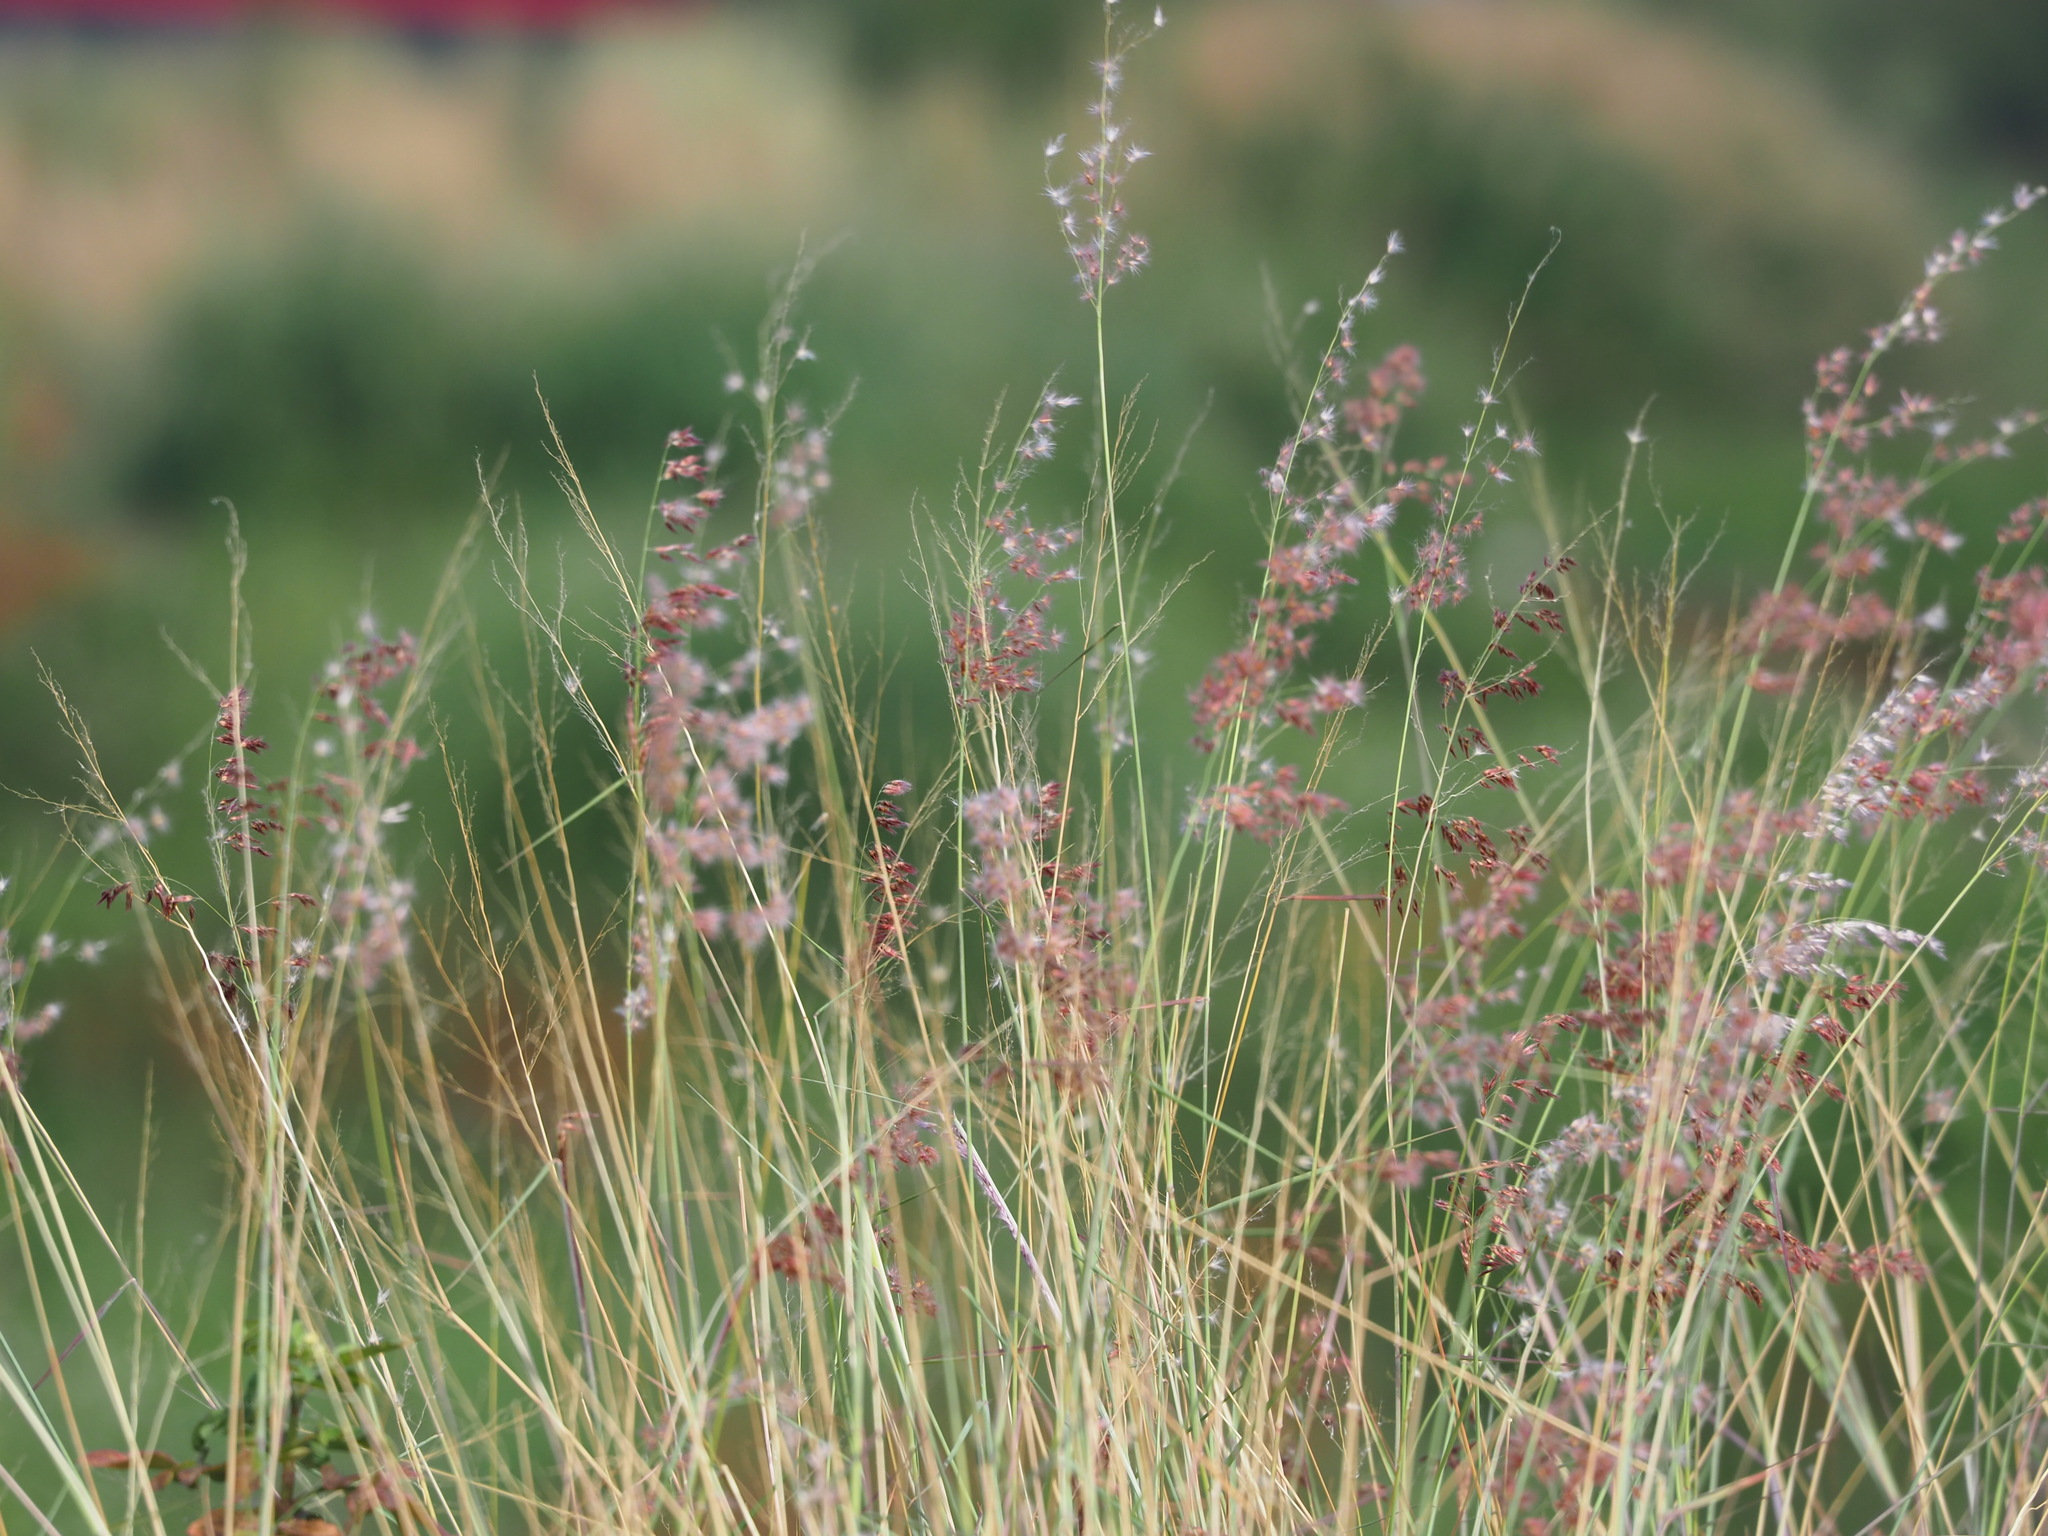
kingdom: Plantae
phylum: Tracheophyta
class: Liliopsida
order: Poales
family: Poaceae
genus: Melinis
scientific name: Melinis repens
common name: Rose natal grass
